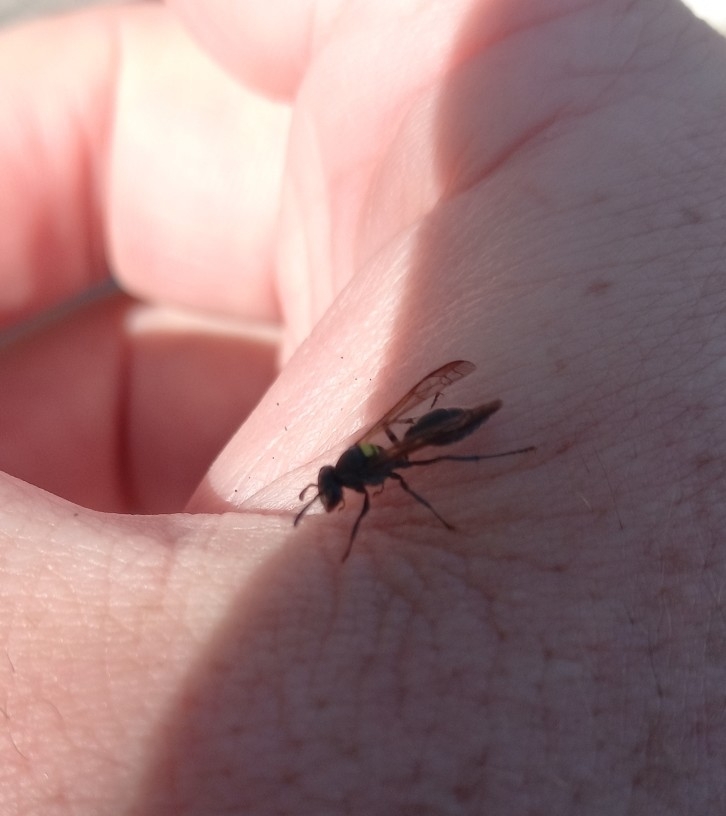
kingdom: Animalia
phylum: Arthropoda
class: Insecta
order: Hymenoptera
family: Eumenidae
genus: Polybia
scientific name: Polybia scutellaris
